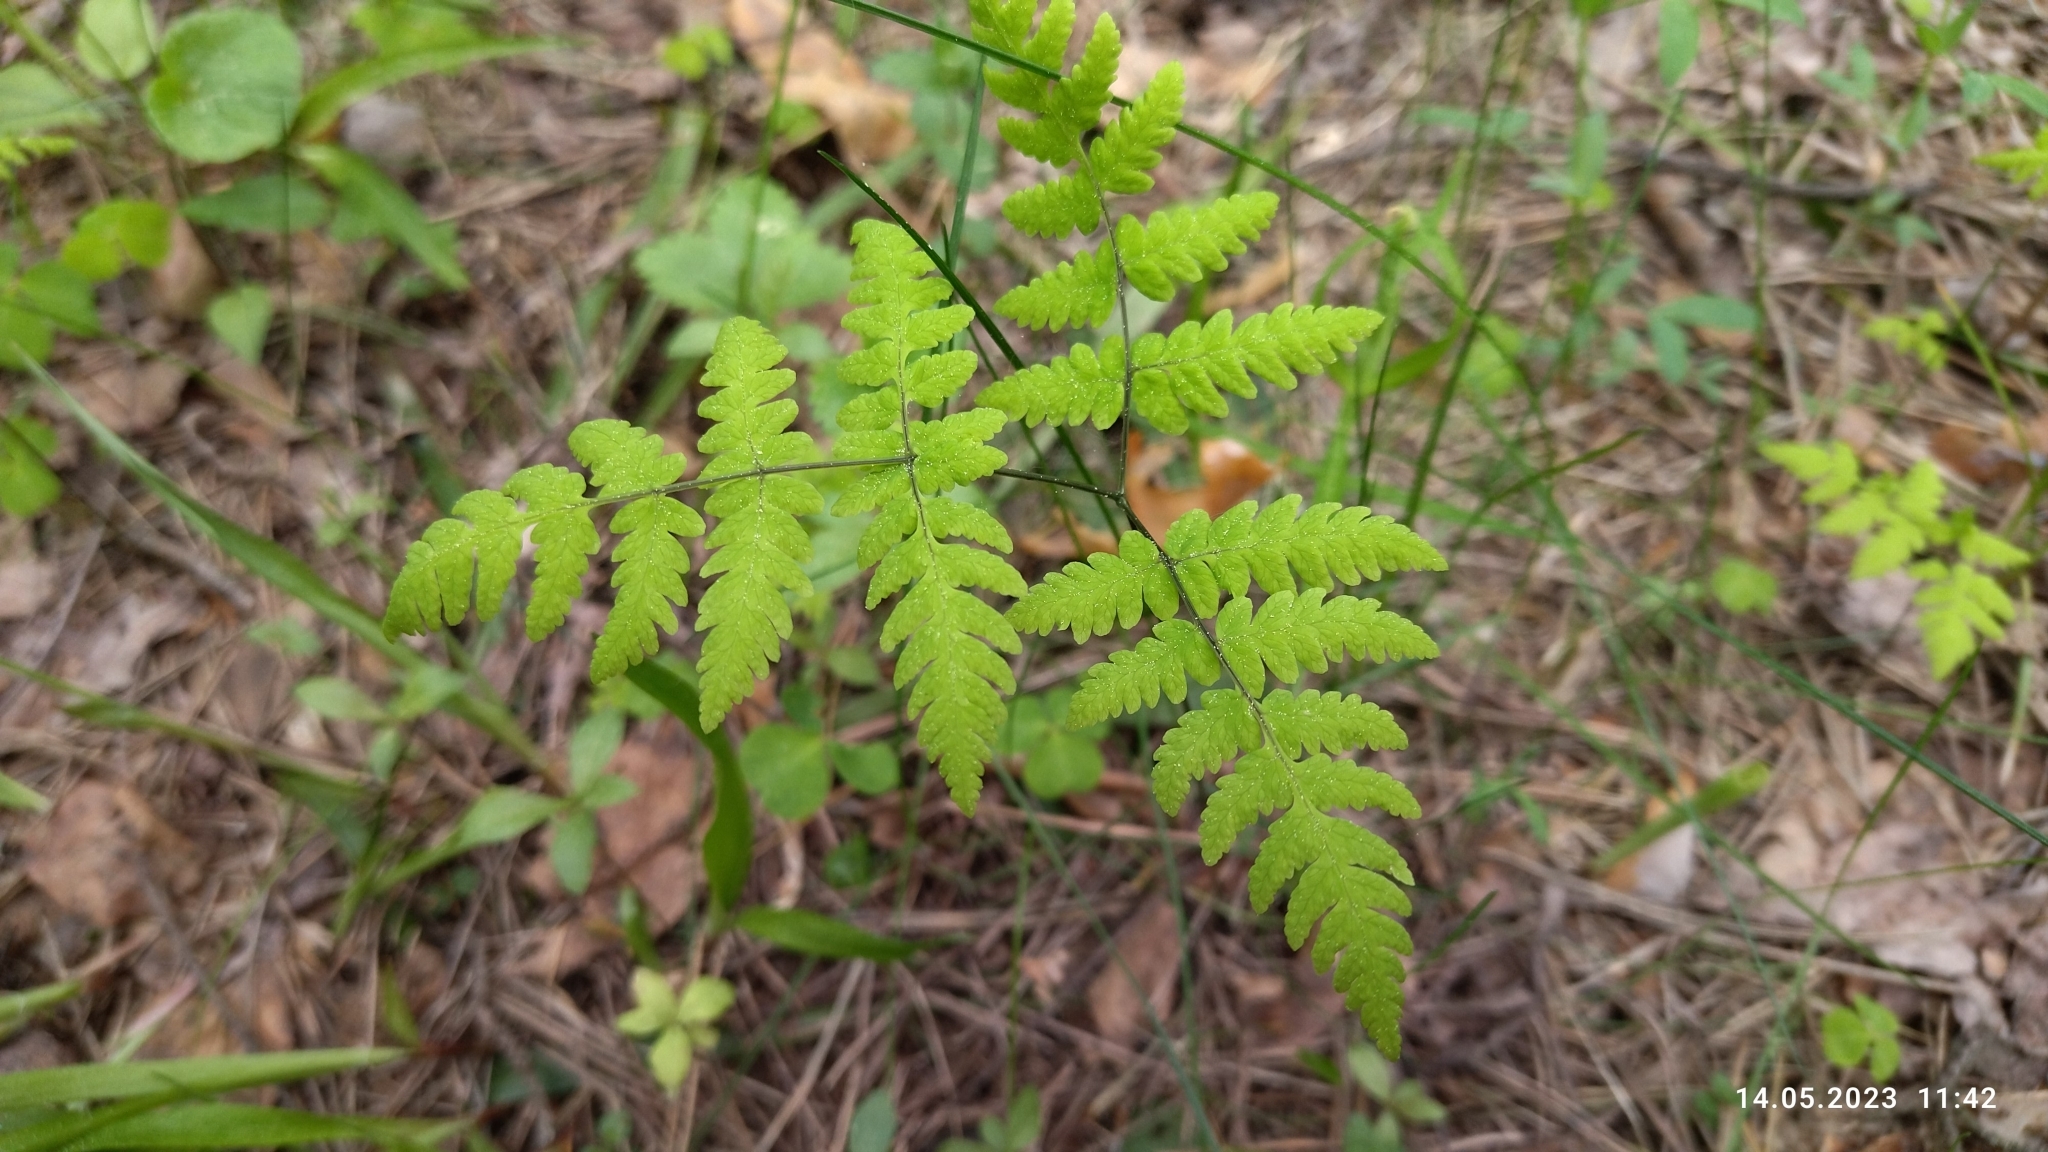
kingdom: Plantae
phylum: Tracheophyta
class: Polypodiopsida
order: Polypodiales
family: Cystopteridaceae
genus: Gymnocarpium
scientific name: Gymnocarpium dryopteris
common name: Oak fern
